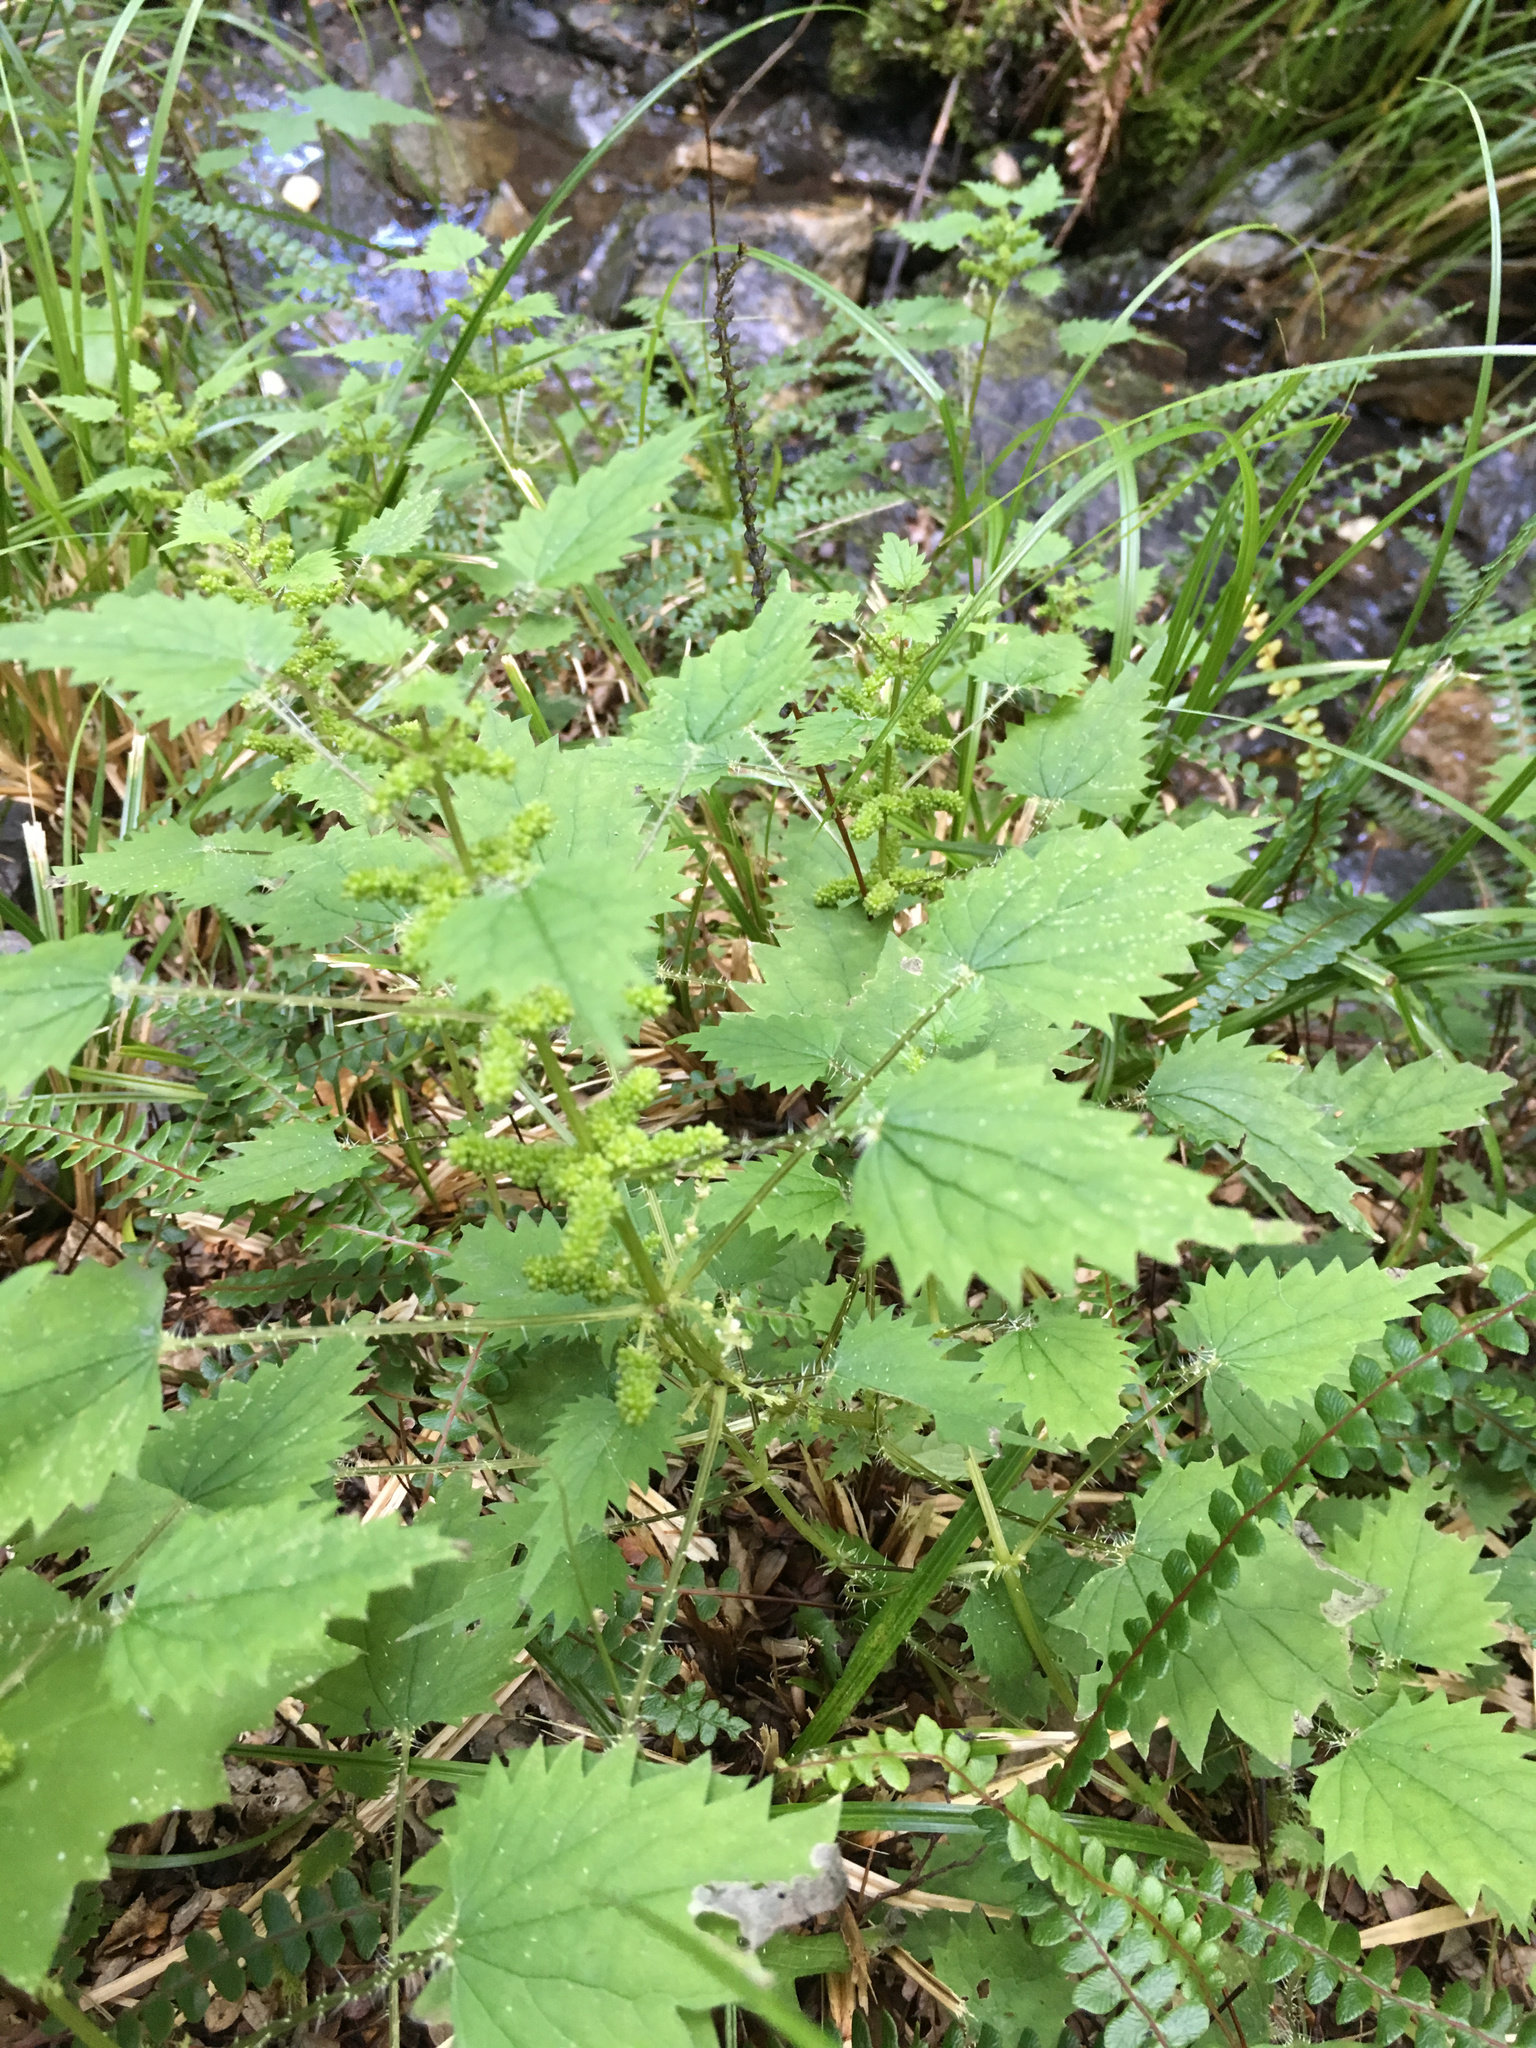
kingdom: Plantae
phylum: Tracheophyta
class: Magnoliopsida
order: Rosales
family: Urticaceae
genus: Urtica
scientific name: Urtica sykesii
